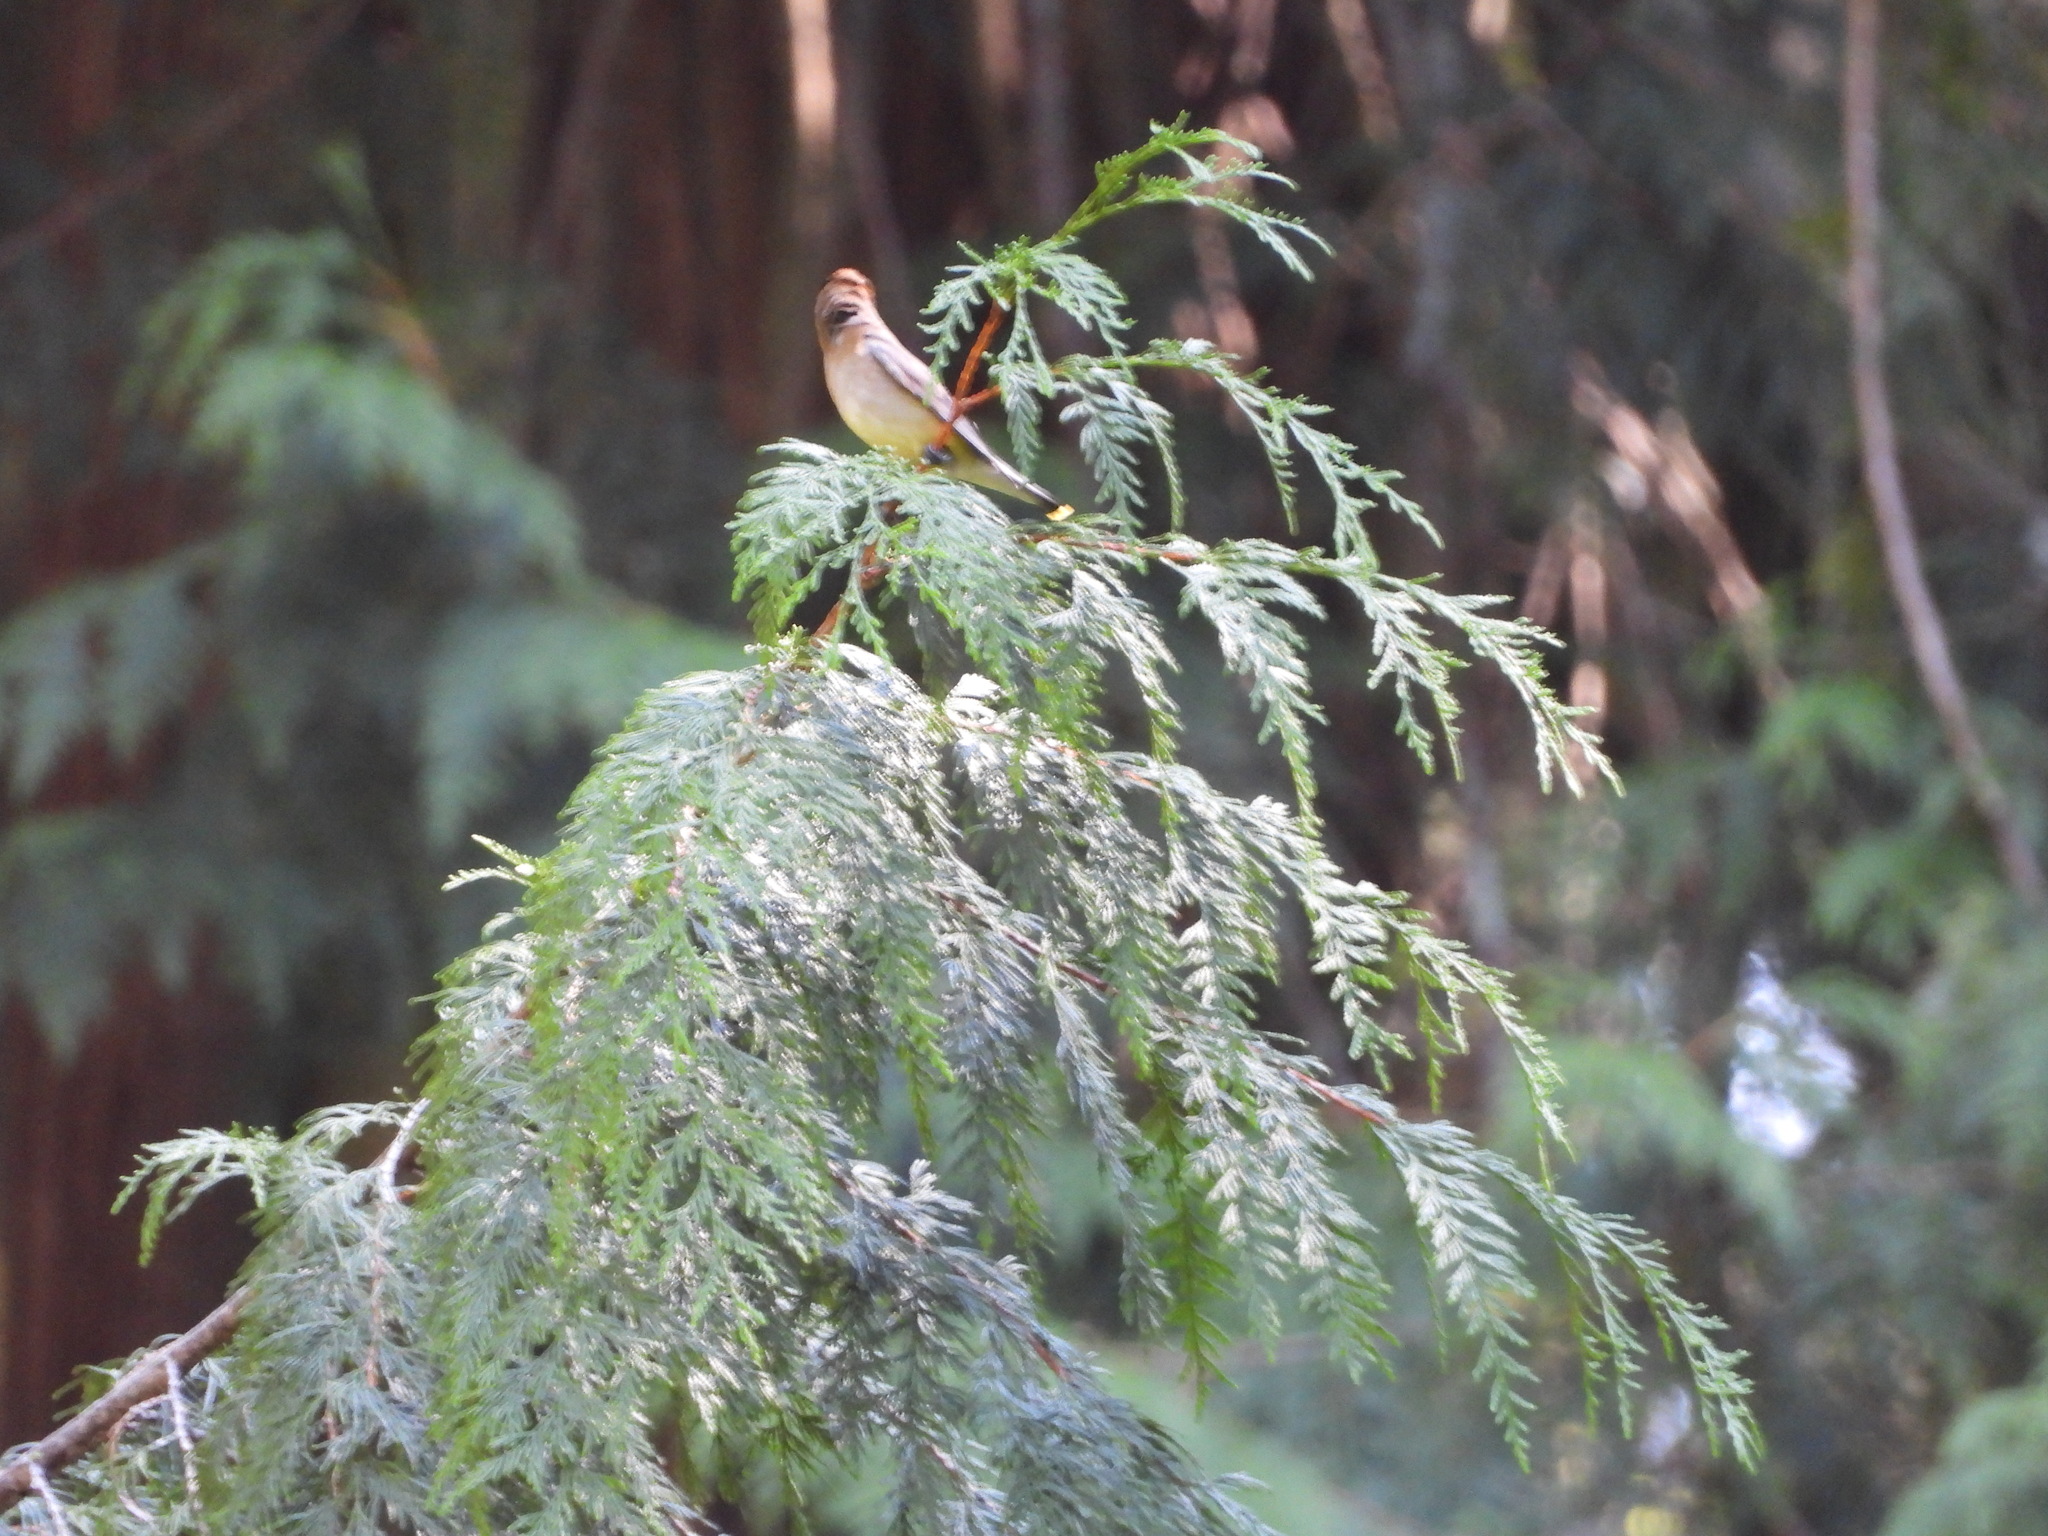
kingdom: Animalia
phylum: Chordata
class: Aves
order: Passeriformes
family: Bombycillidae
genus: Bombycilla
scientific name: Bombycilla cedrorum
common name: Cedar waxwing
